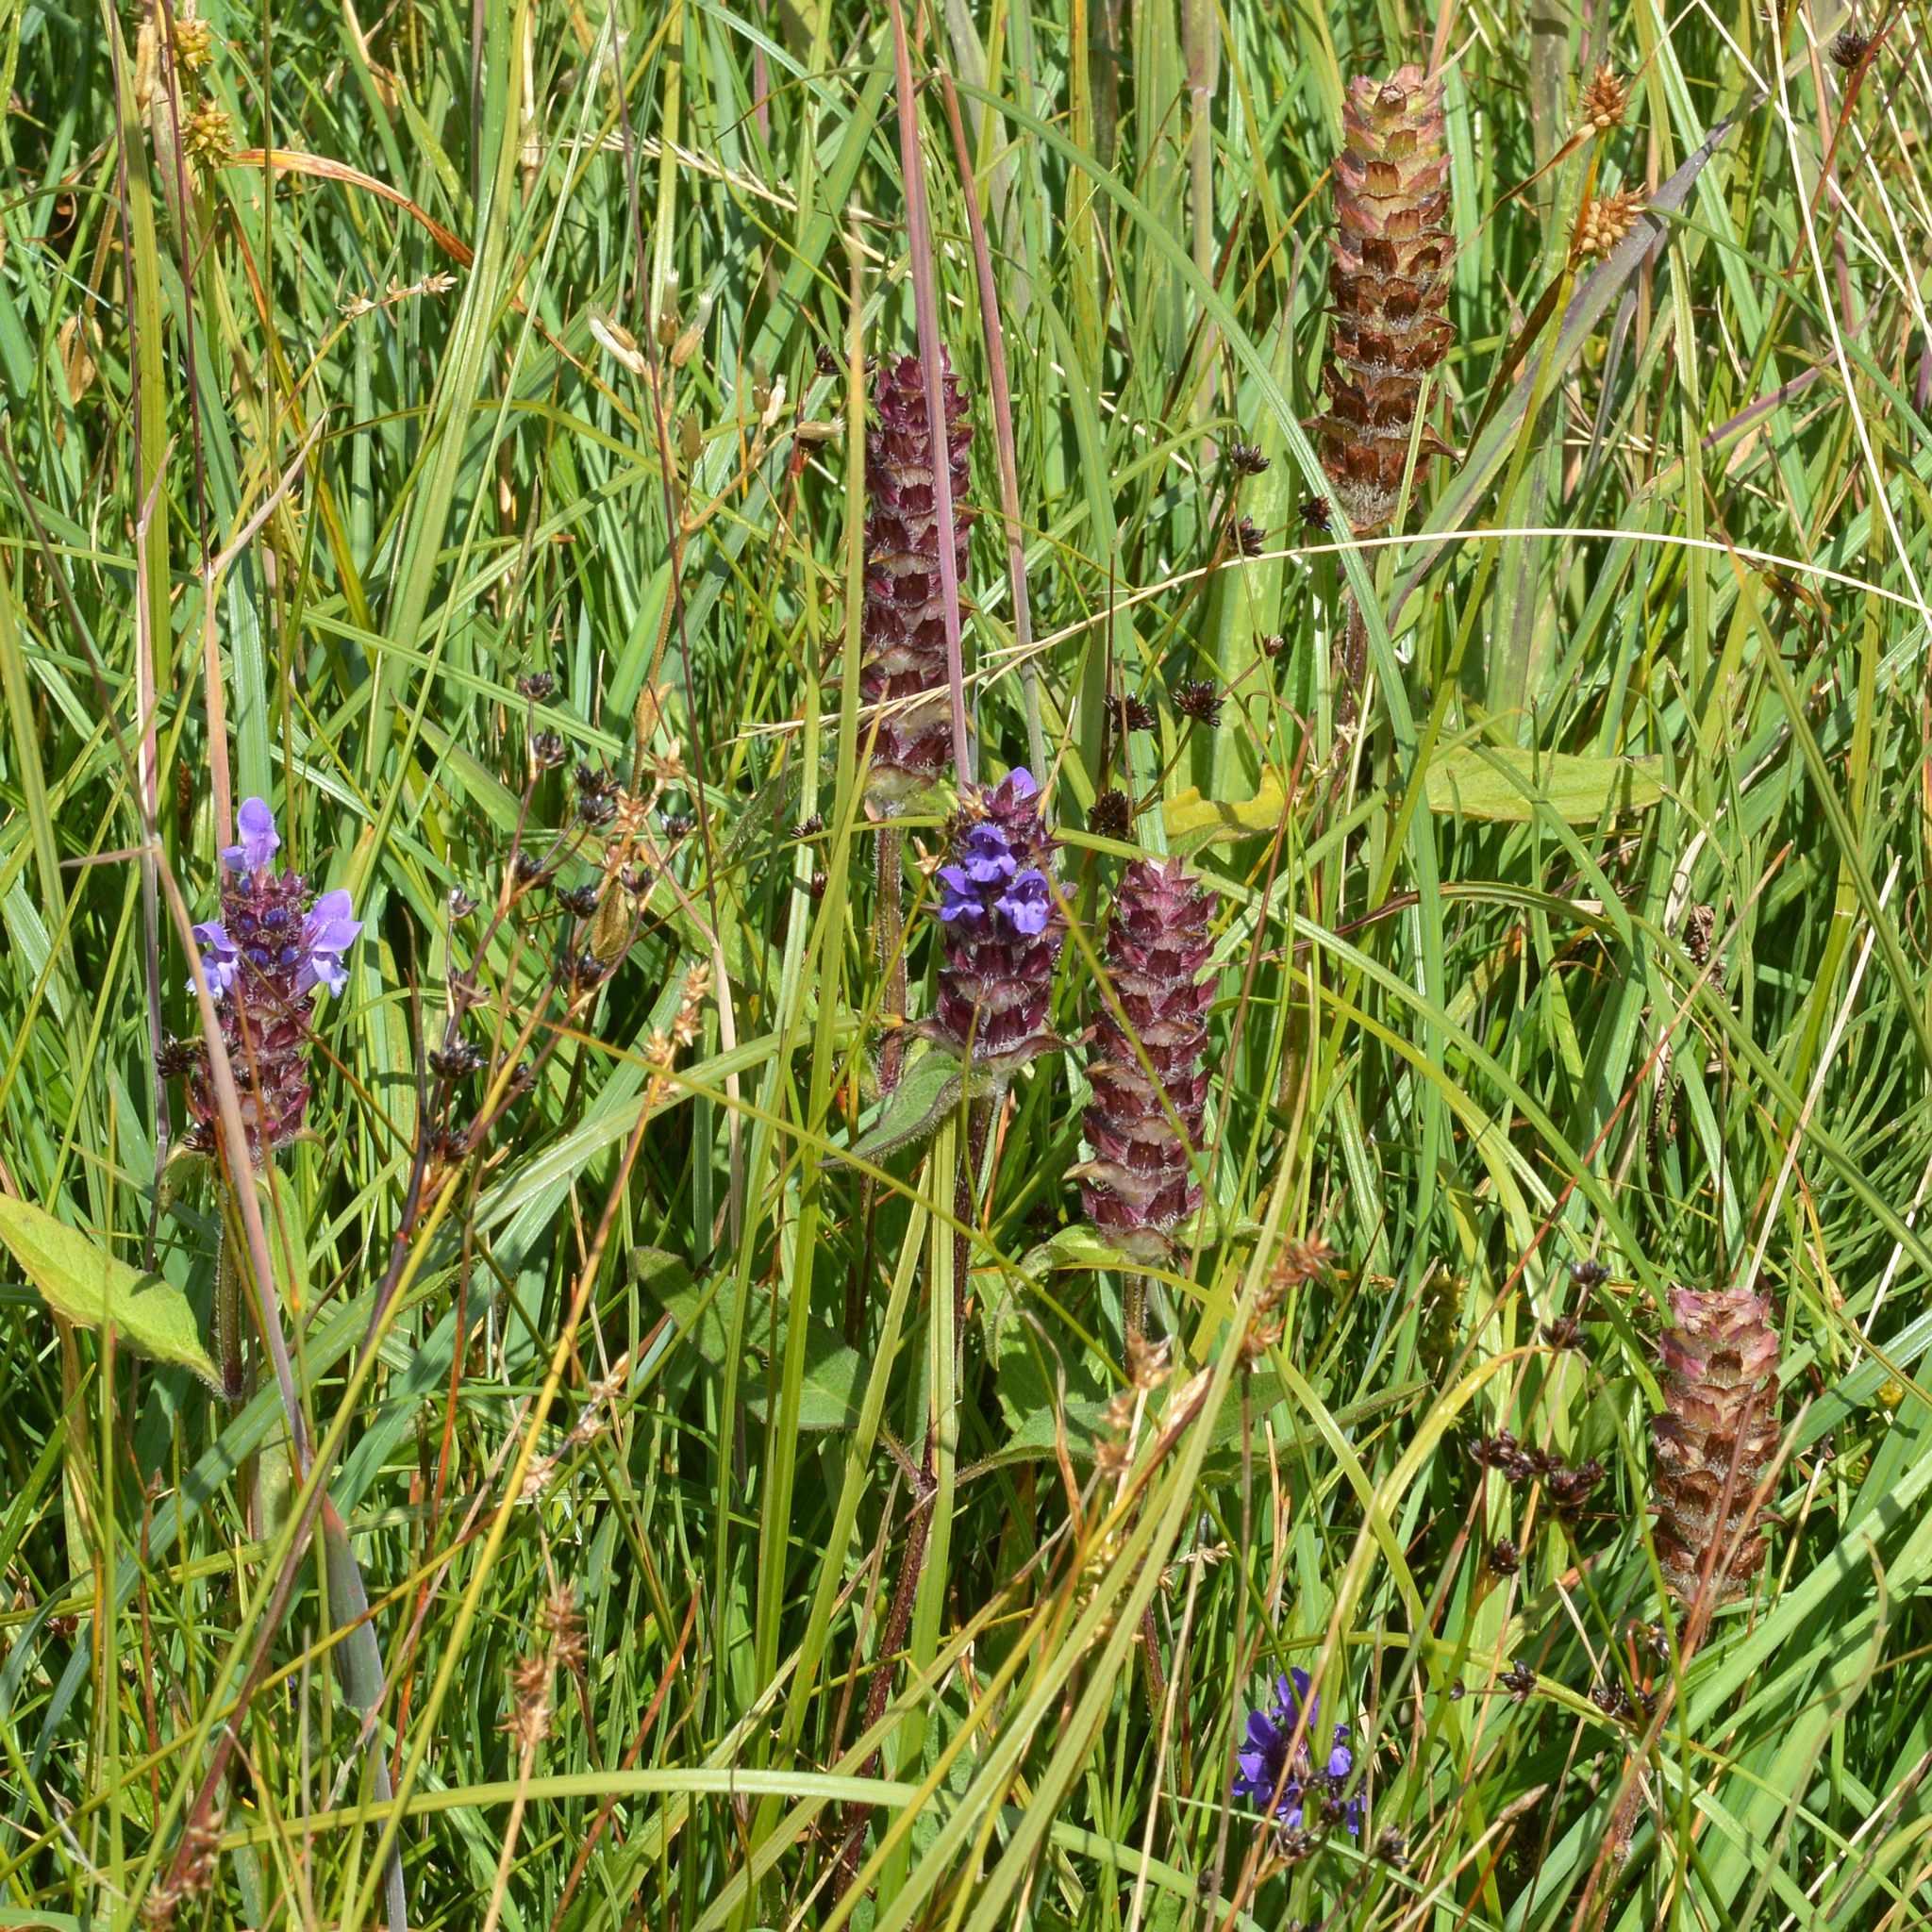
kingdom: Plantae
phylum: Tracheophyta
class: Magnoliopsida
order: Lamiales
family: Lamiaceae
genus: Prunella
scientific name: Prunella vulgaris
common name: Heal-all
